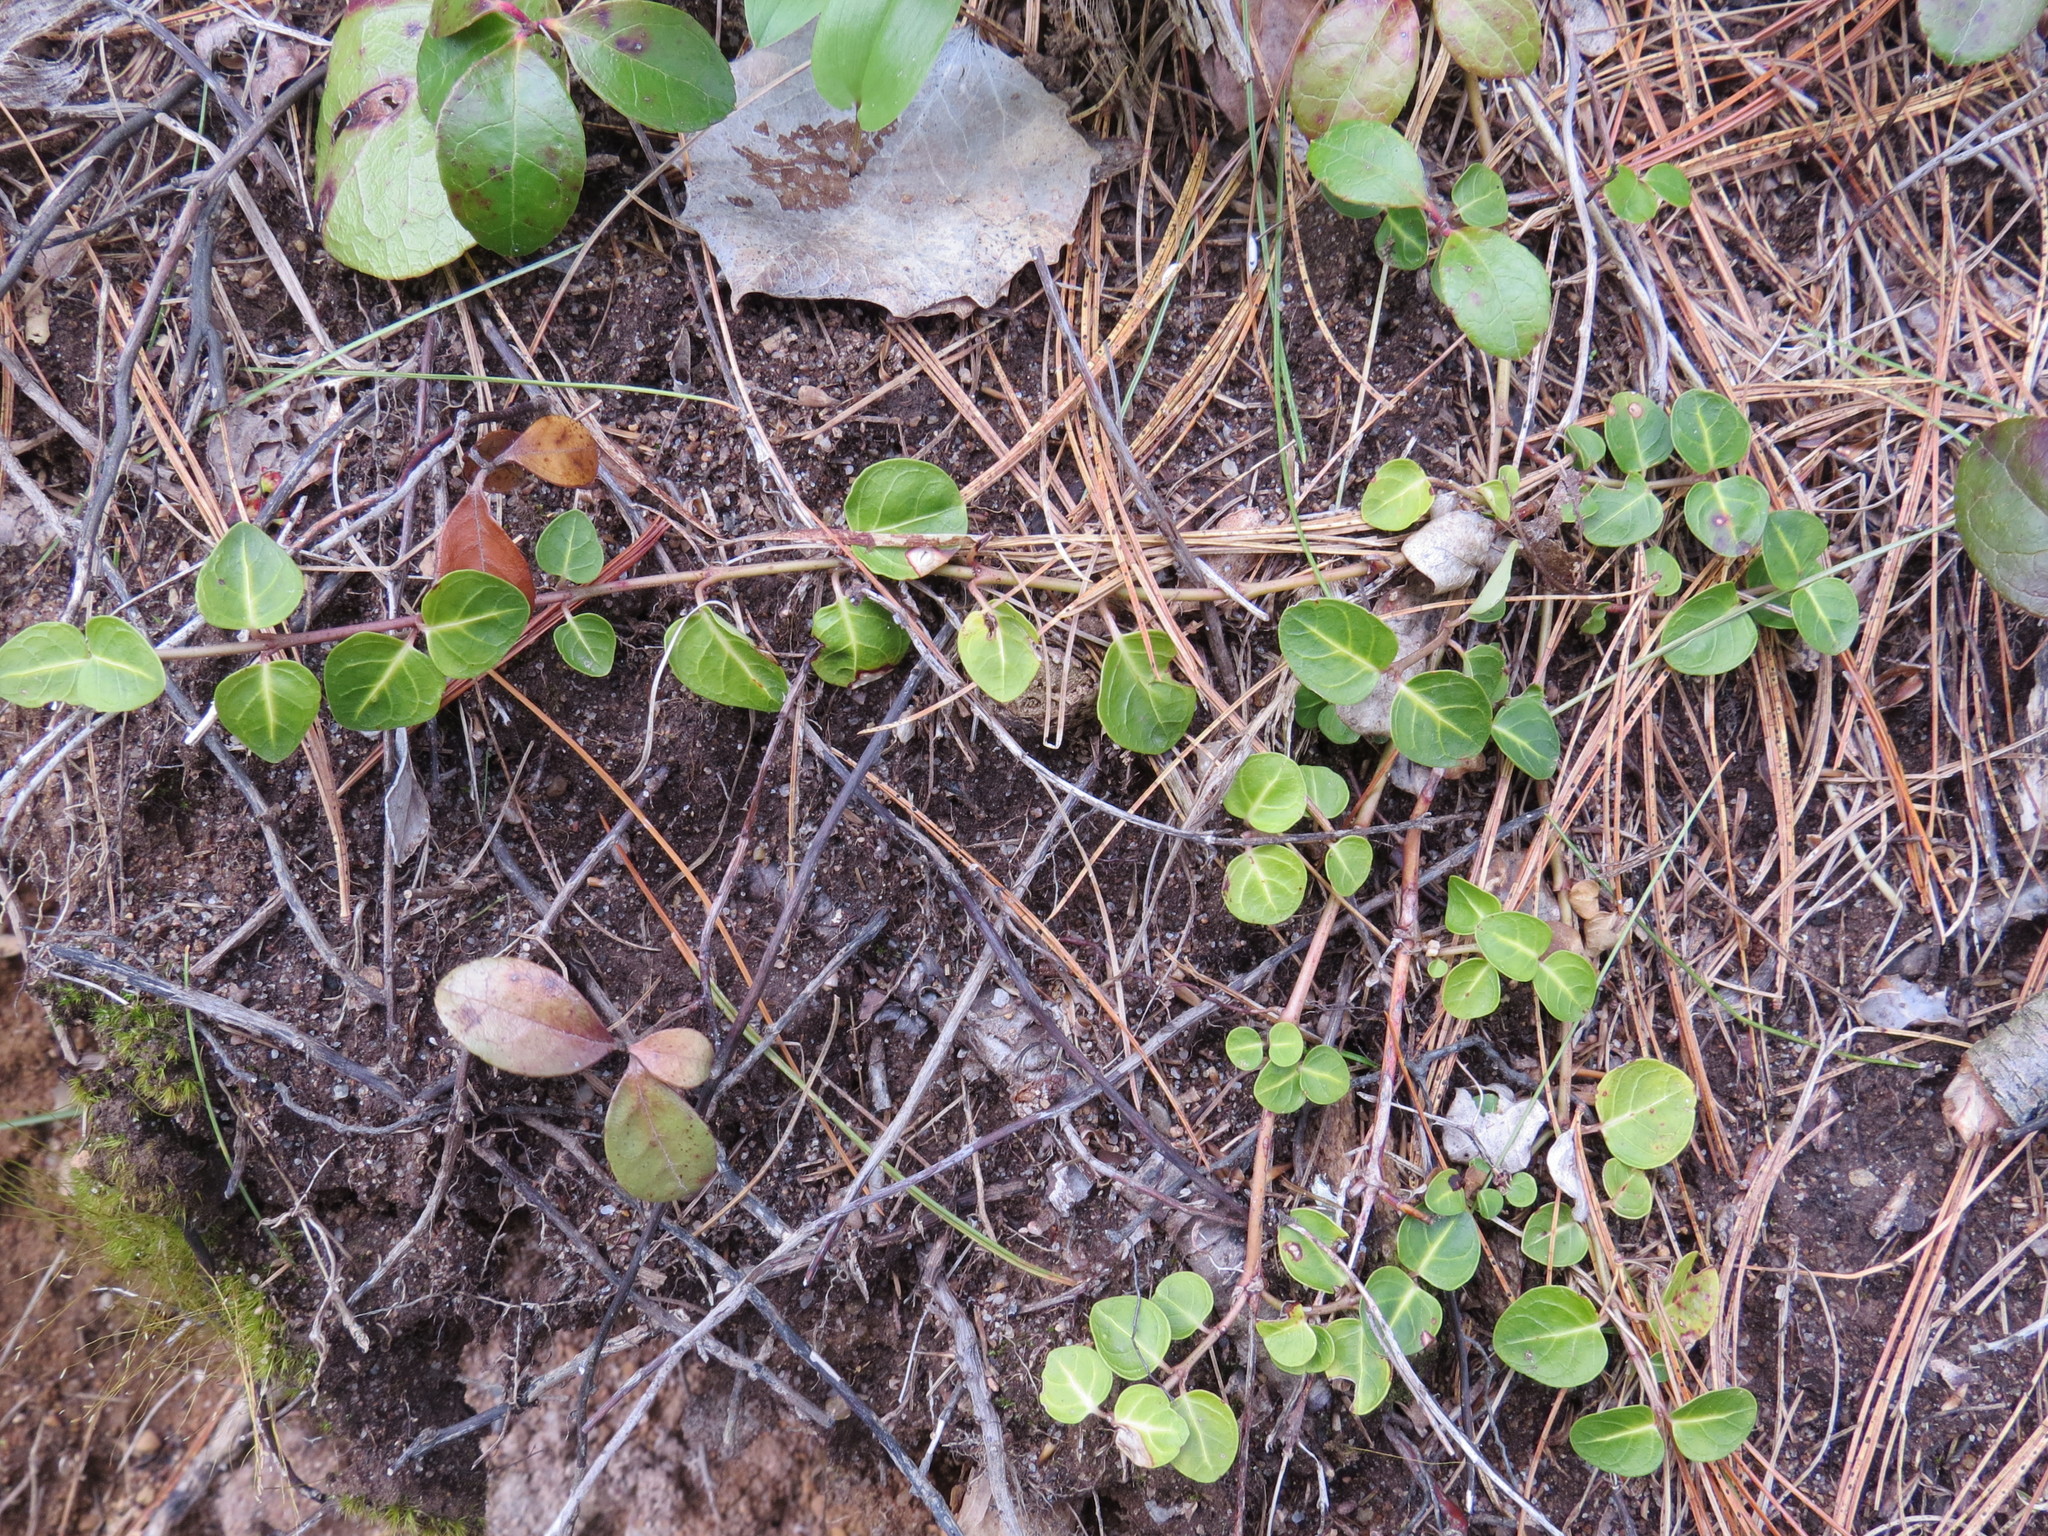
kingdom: Plantae
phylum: Tracheophyta
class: Magnoliopsida
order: Gentianales
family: Rubiaceae
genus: Mitchella
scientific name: Mitchella repens
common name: Partridge-berry
